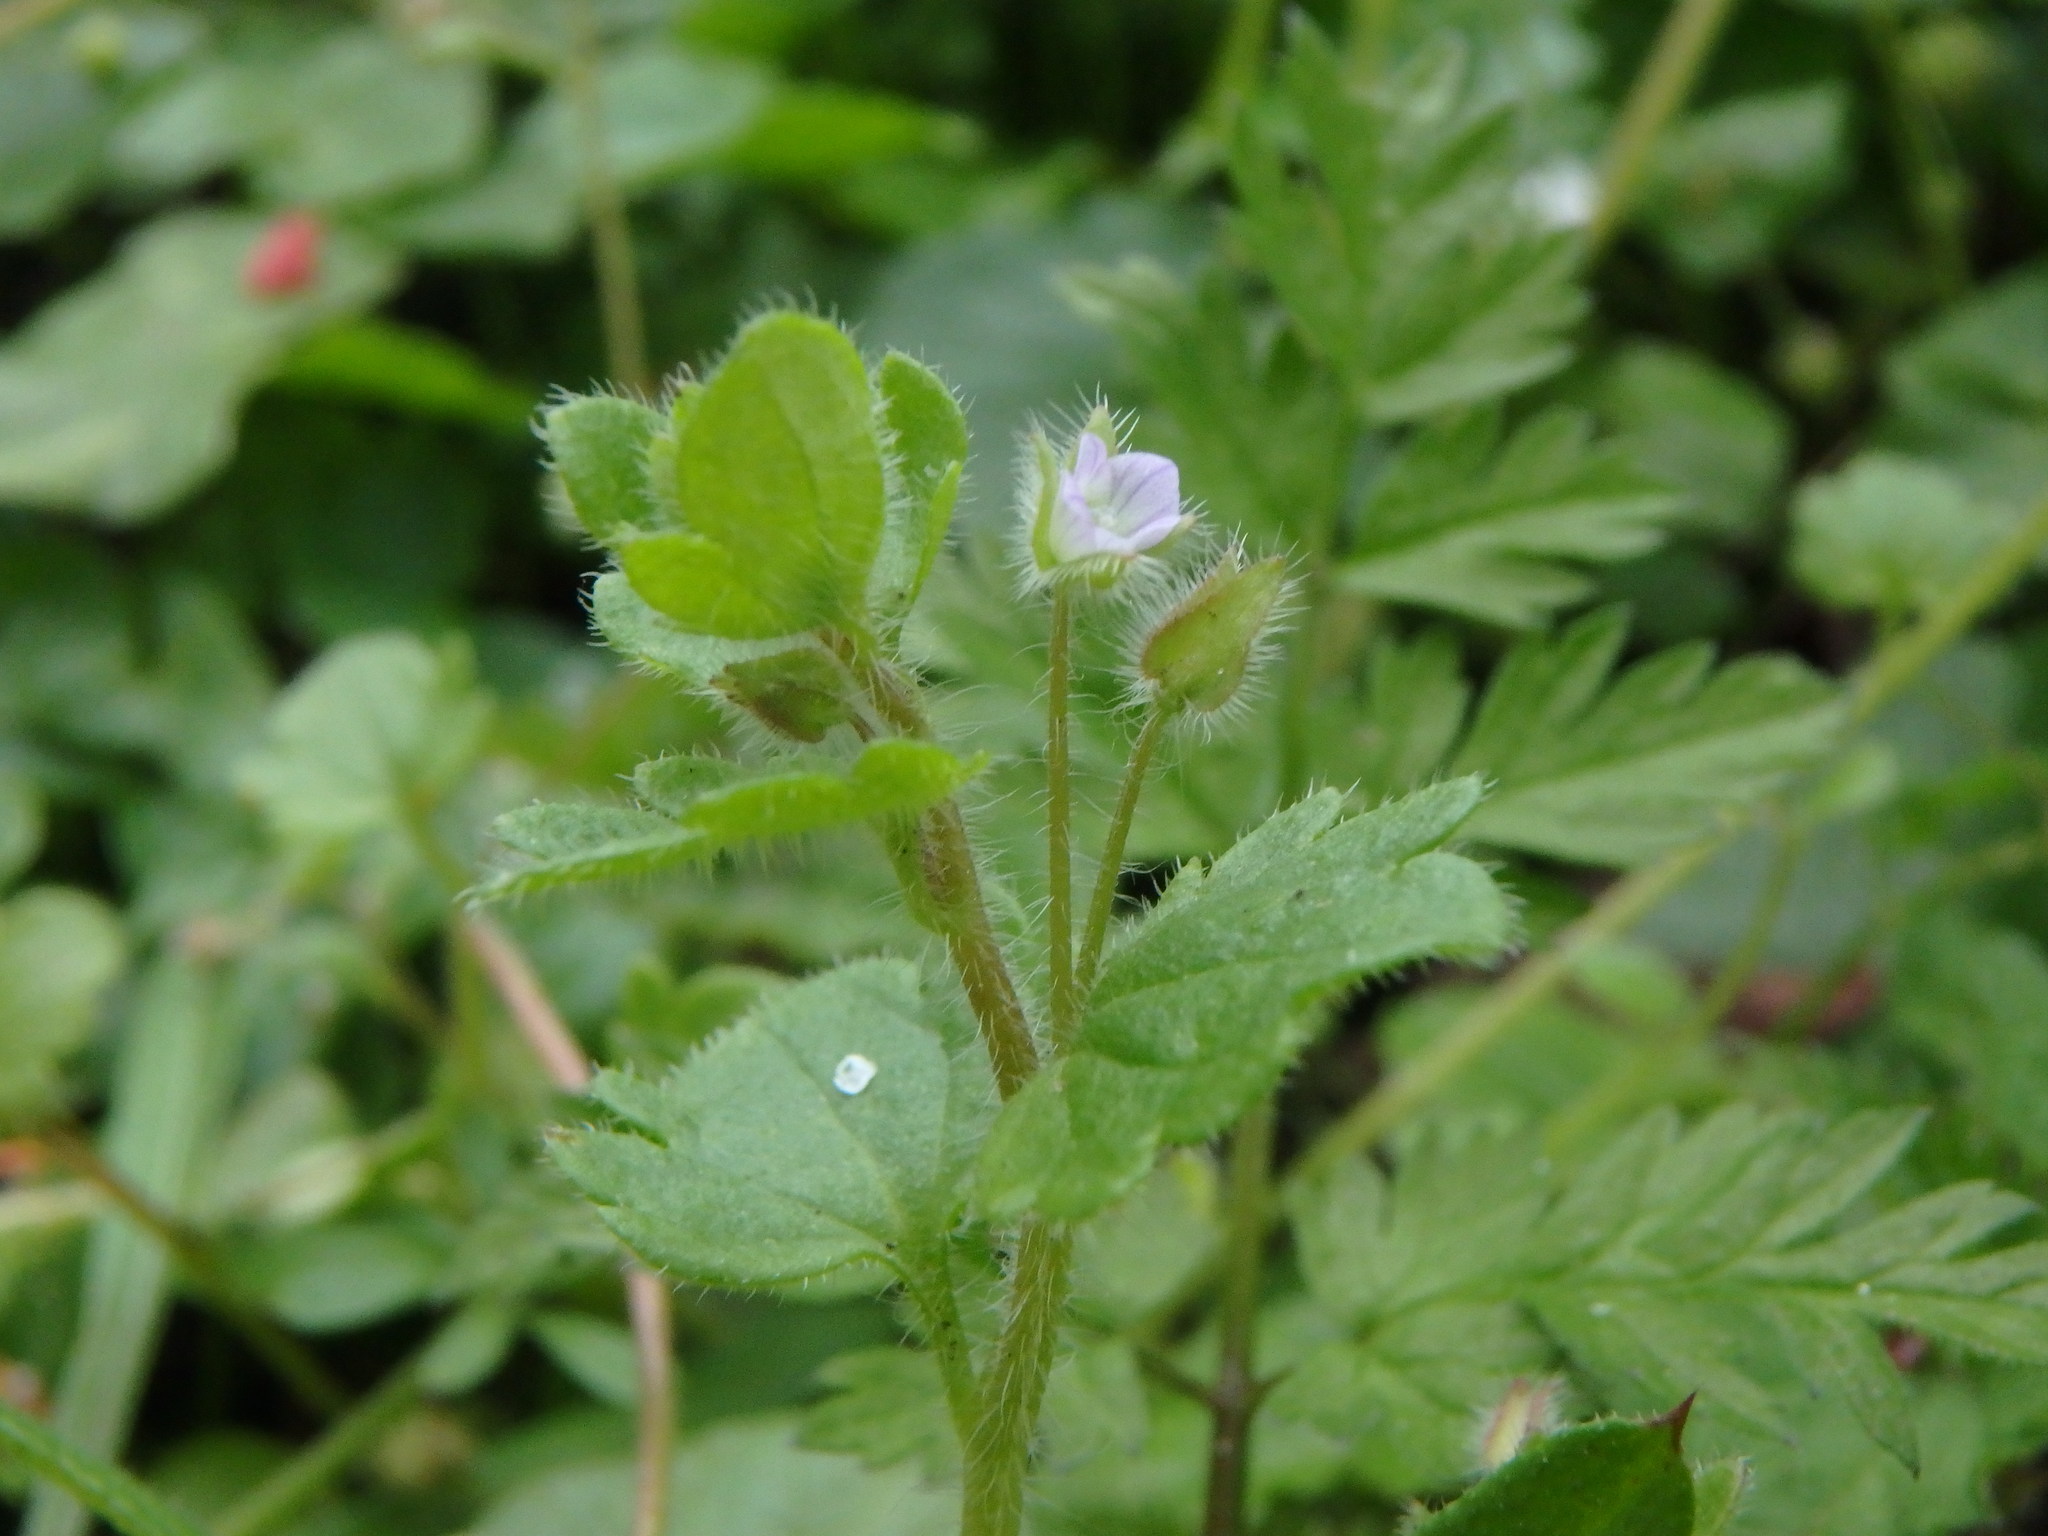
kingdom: Plantae
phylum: Tracheophyta
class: Magnoliopsida
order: Lamiales
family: Plantaginaceae
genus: Veronica
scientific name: Veronica sublobata
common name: False ivy-leaved speedwell
